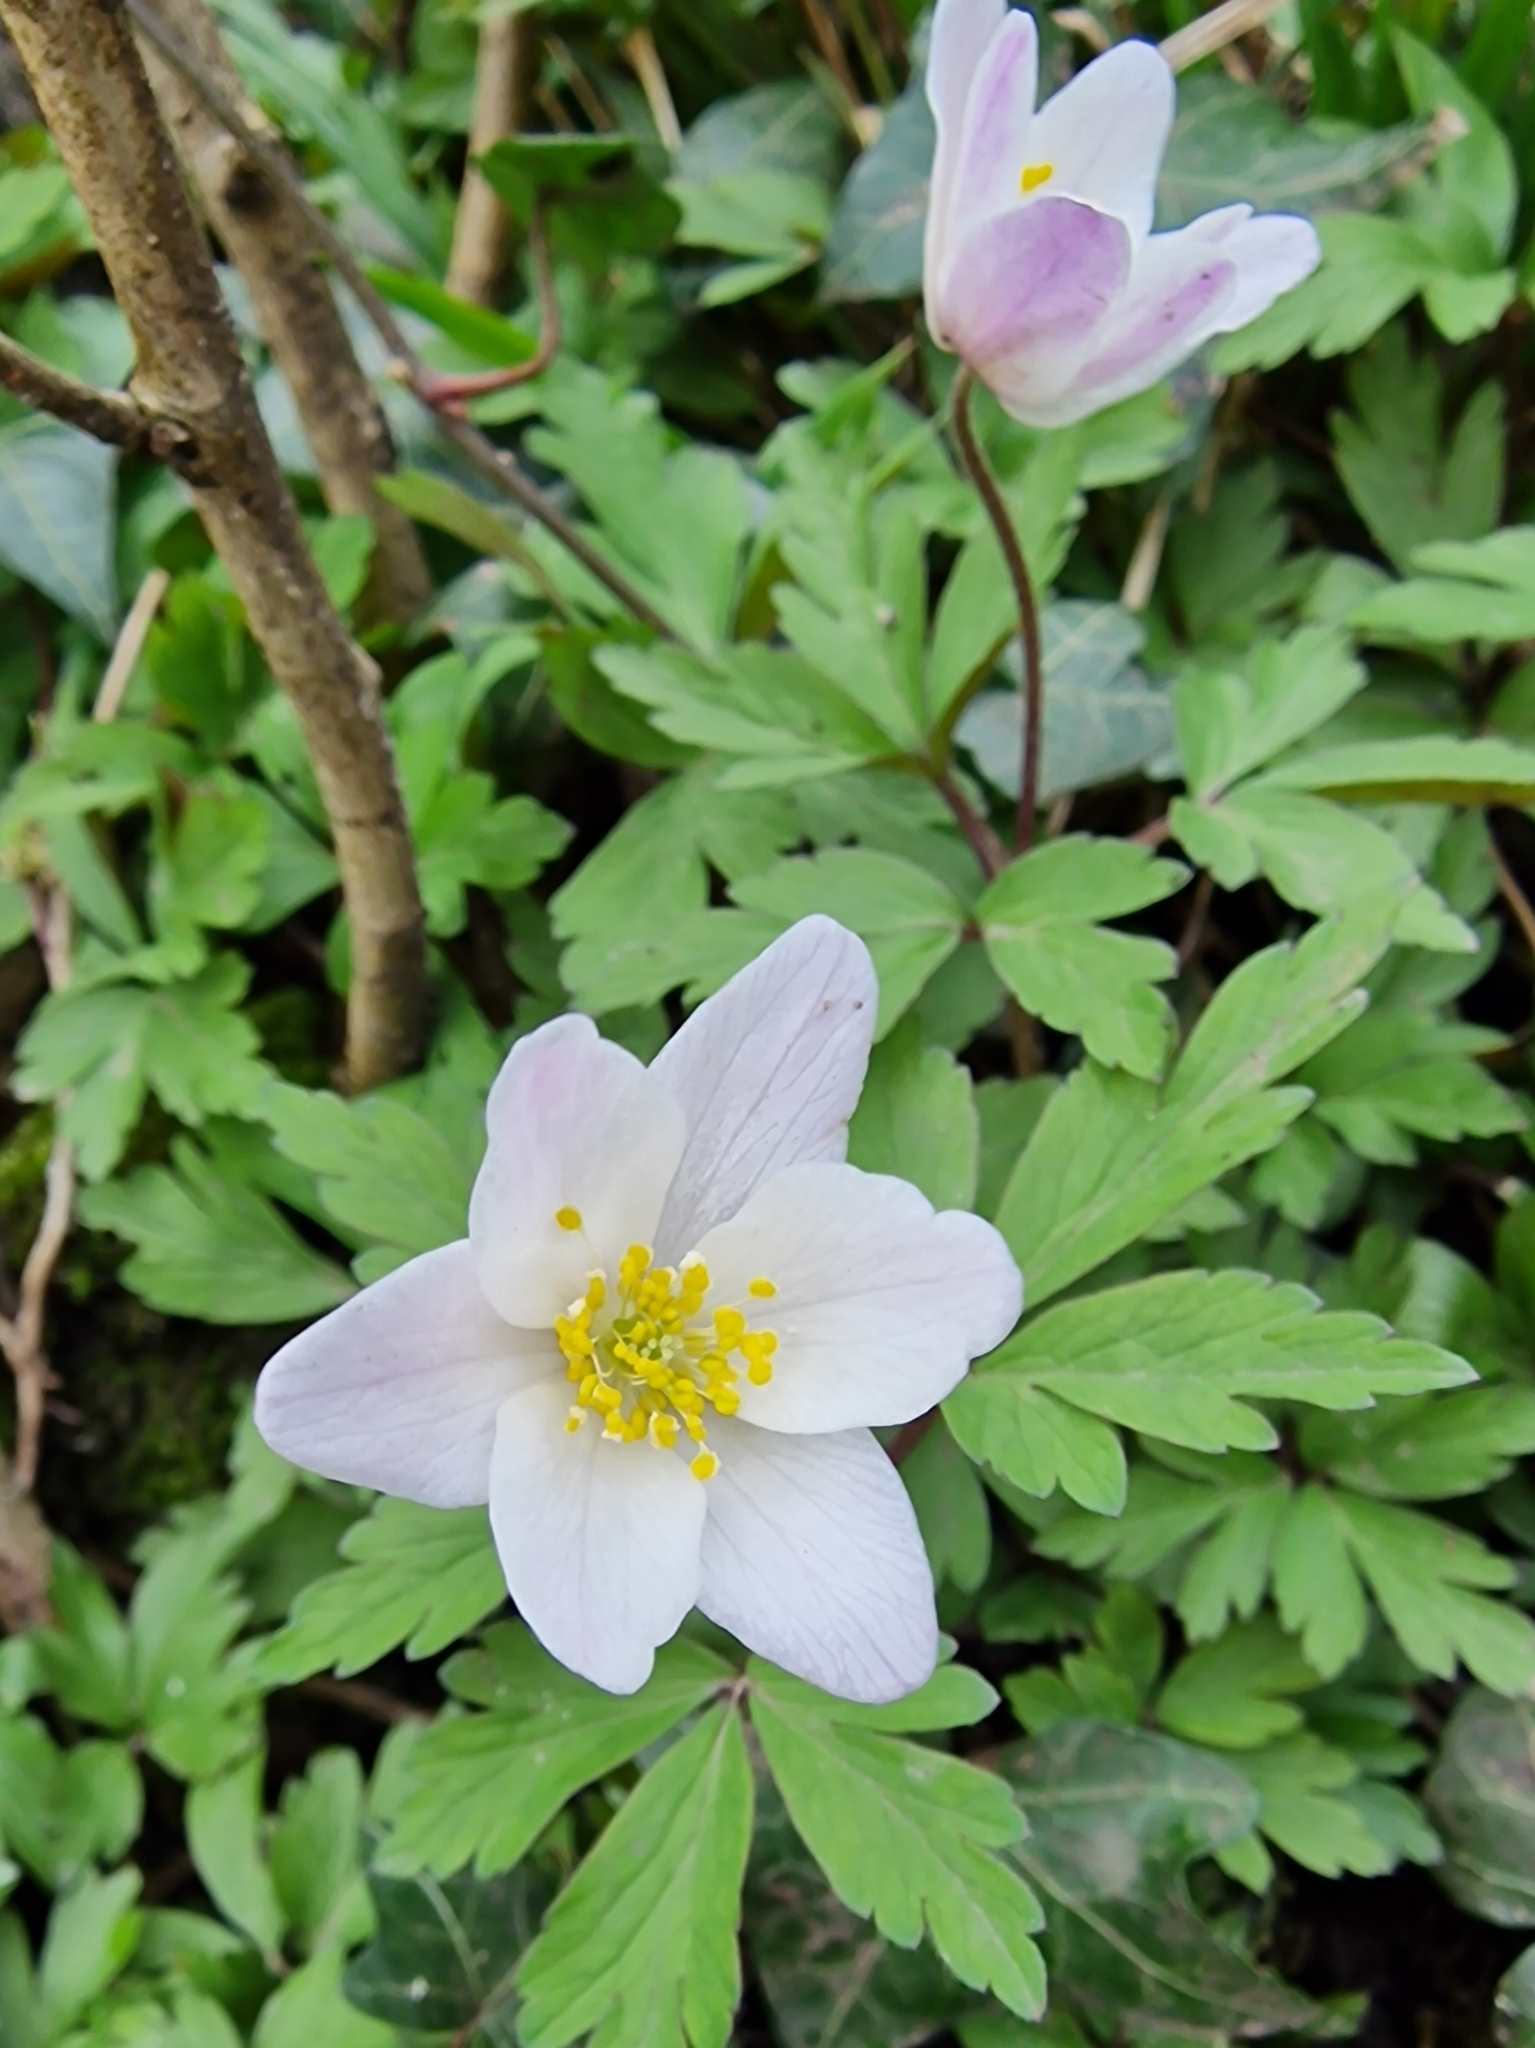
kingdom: Plantae
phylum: Tracheophyta
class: Magnoliopsida
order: Ranunculales
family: Ranunculaceae
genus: Anemone
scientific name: Anemone nemorosa
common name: Wood anemone
